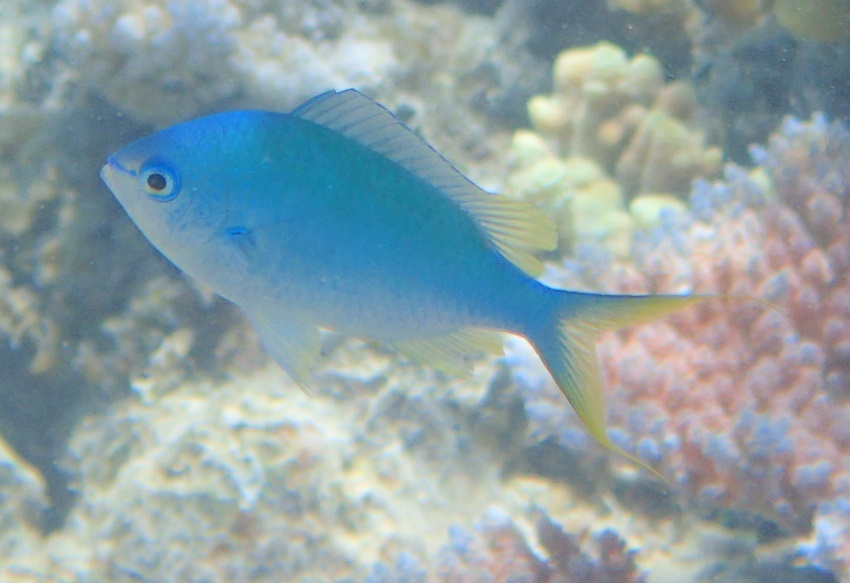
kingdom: Animalia
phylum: Chordata
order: Perciformes
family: Pomacentridae
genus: Chromis
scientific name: Chromis atripectoralis
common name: Black-axil chromis
